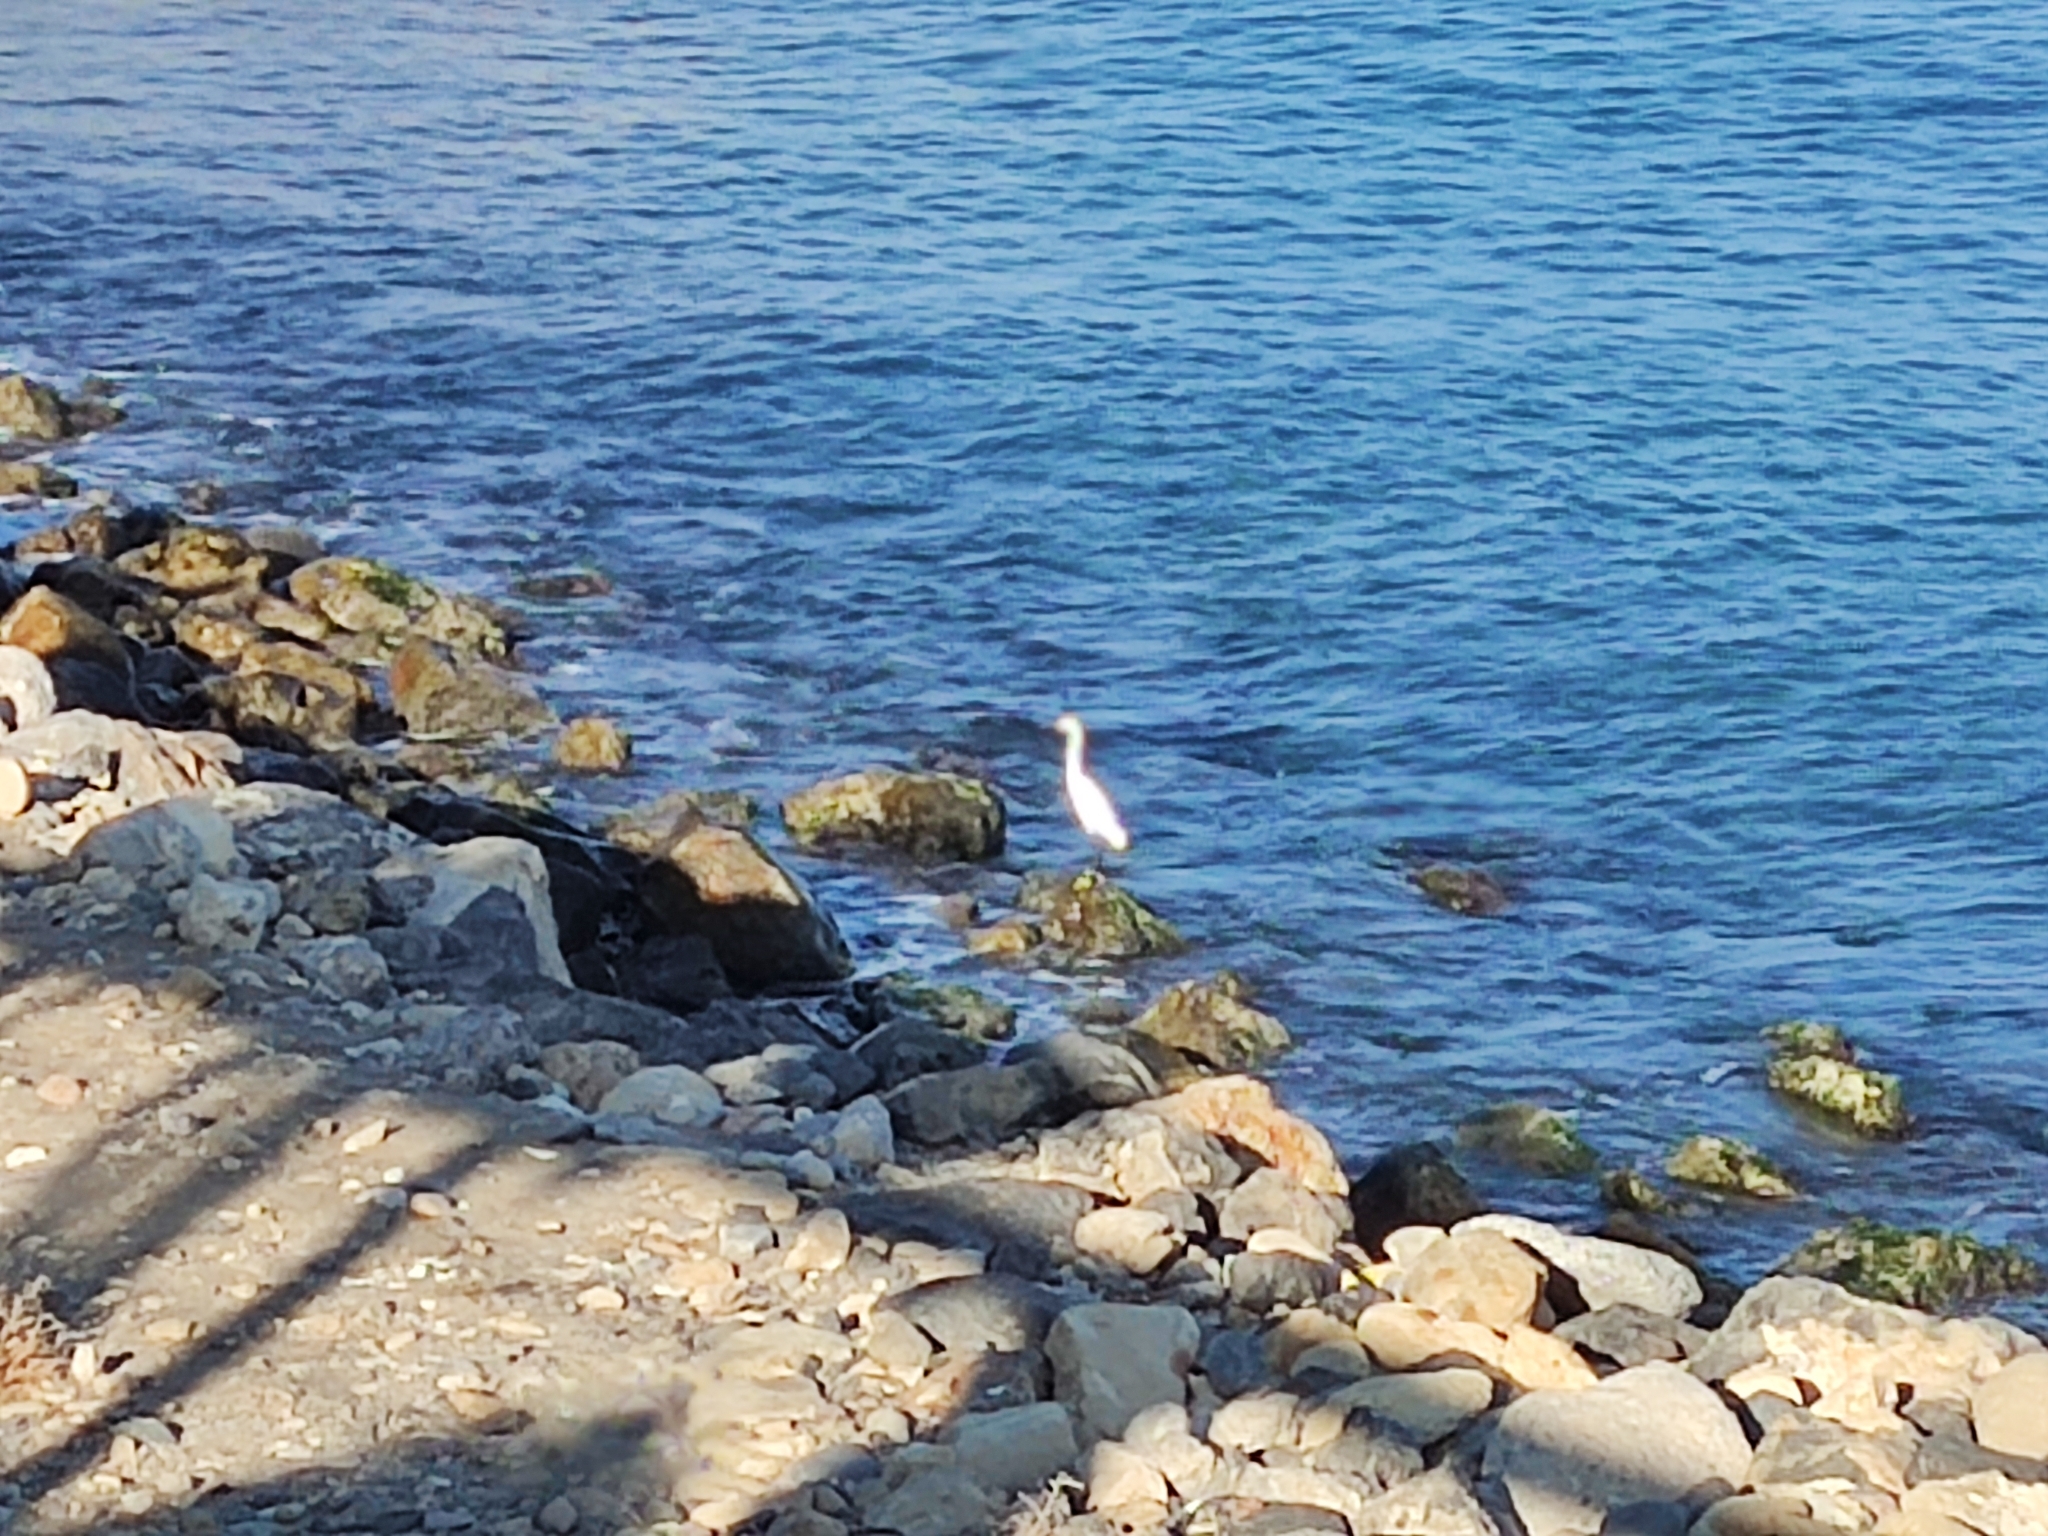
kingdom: Animalia
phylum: Chordata
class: Aves
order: Pelecaniformes
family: Ardeidae
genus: Egretta
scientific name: Egretta garzetta
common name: Little egret
